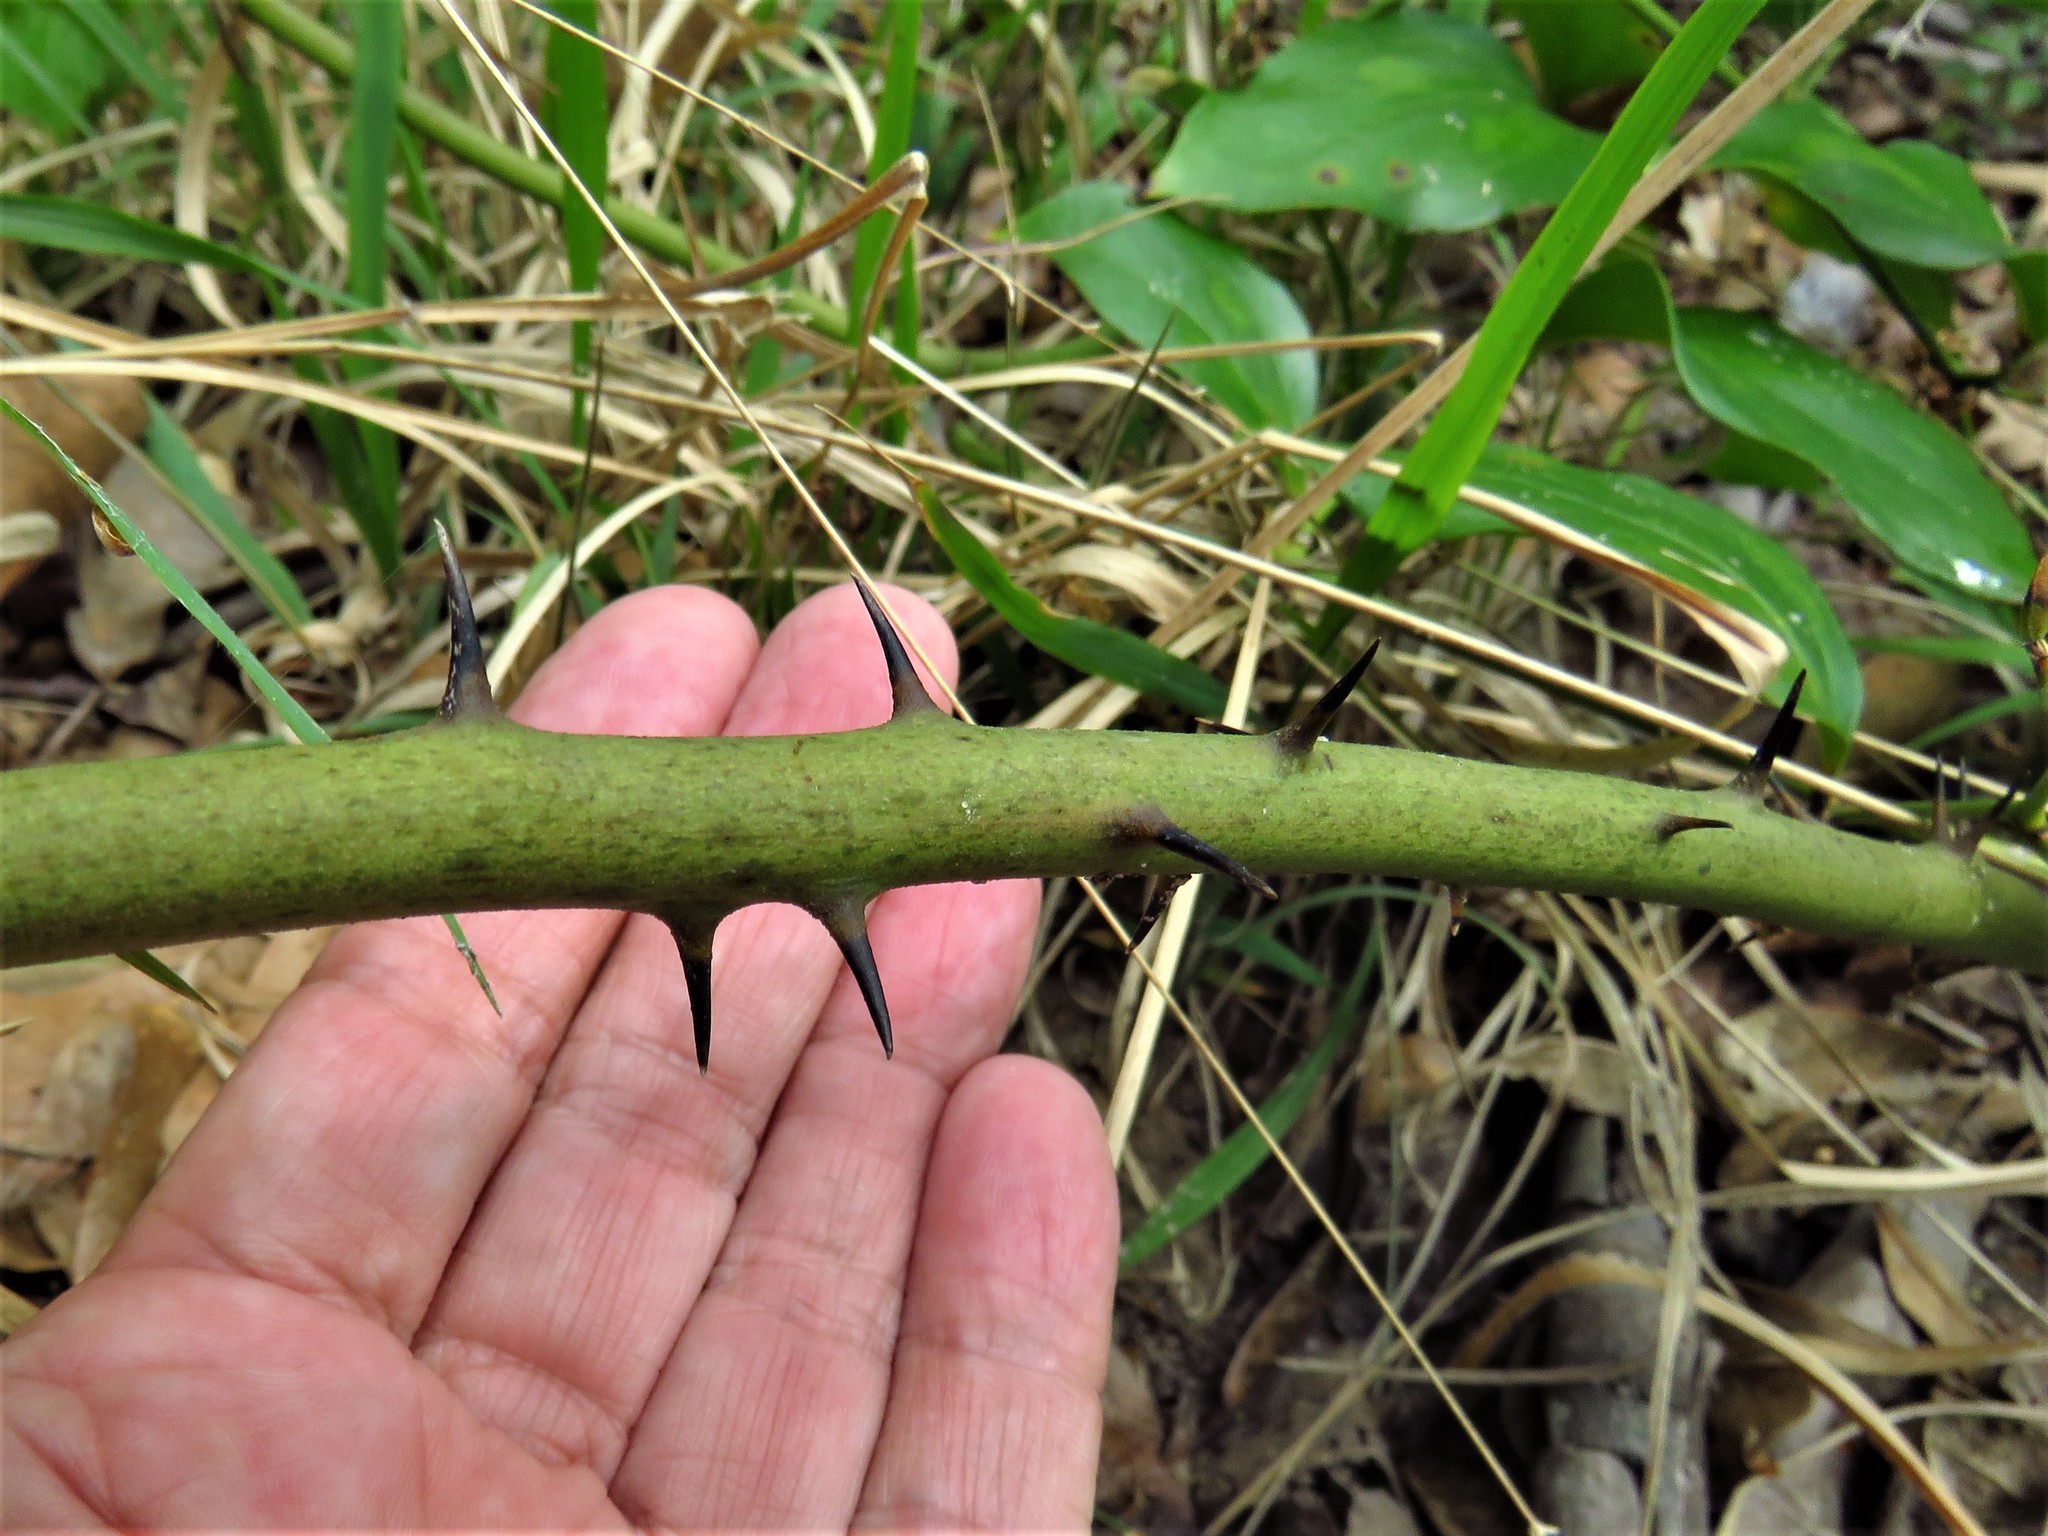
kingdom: Plantae
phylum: Tracheophyta
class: Liliopsida
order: Liliales
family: Smilacaceae
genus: Smilax
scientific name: Smilax maritima
